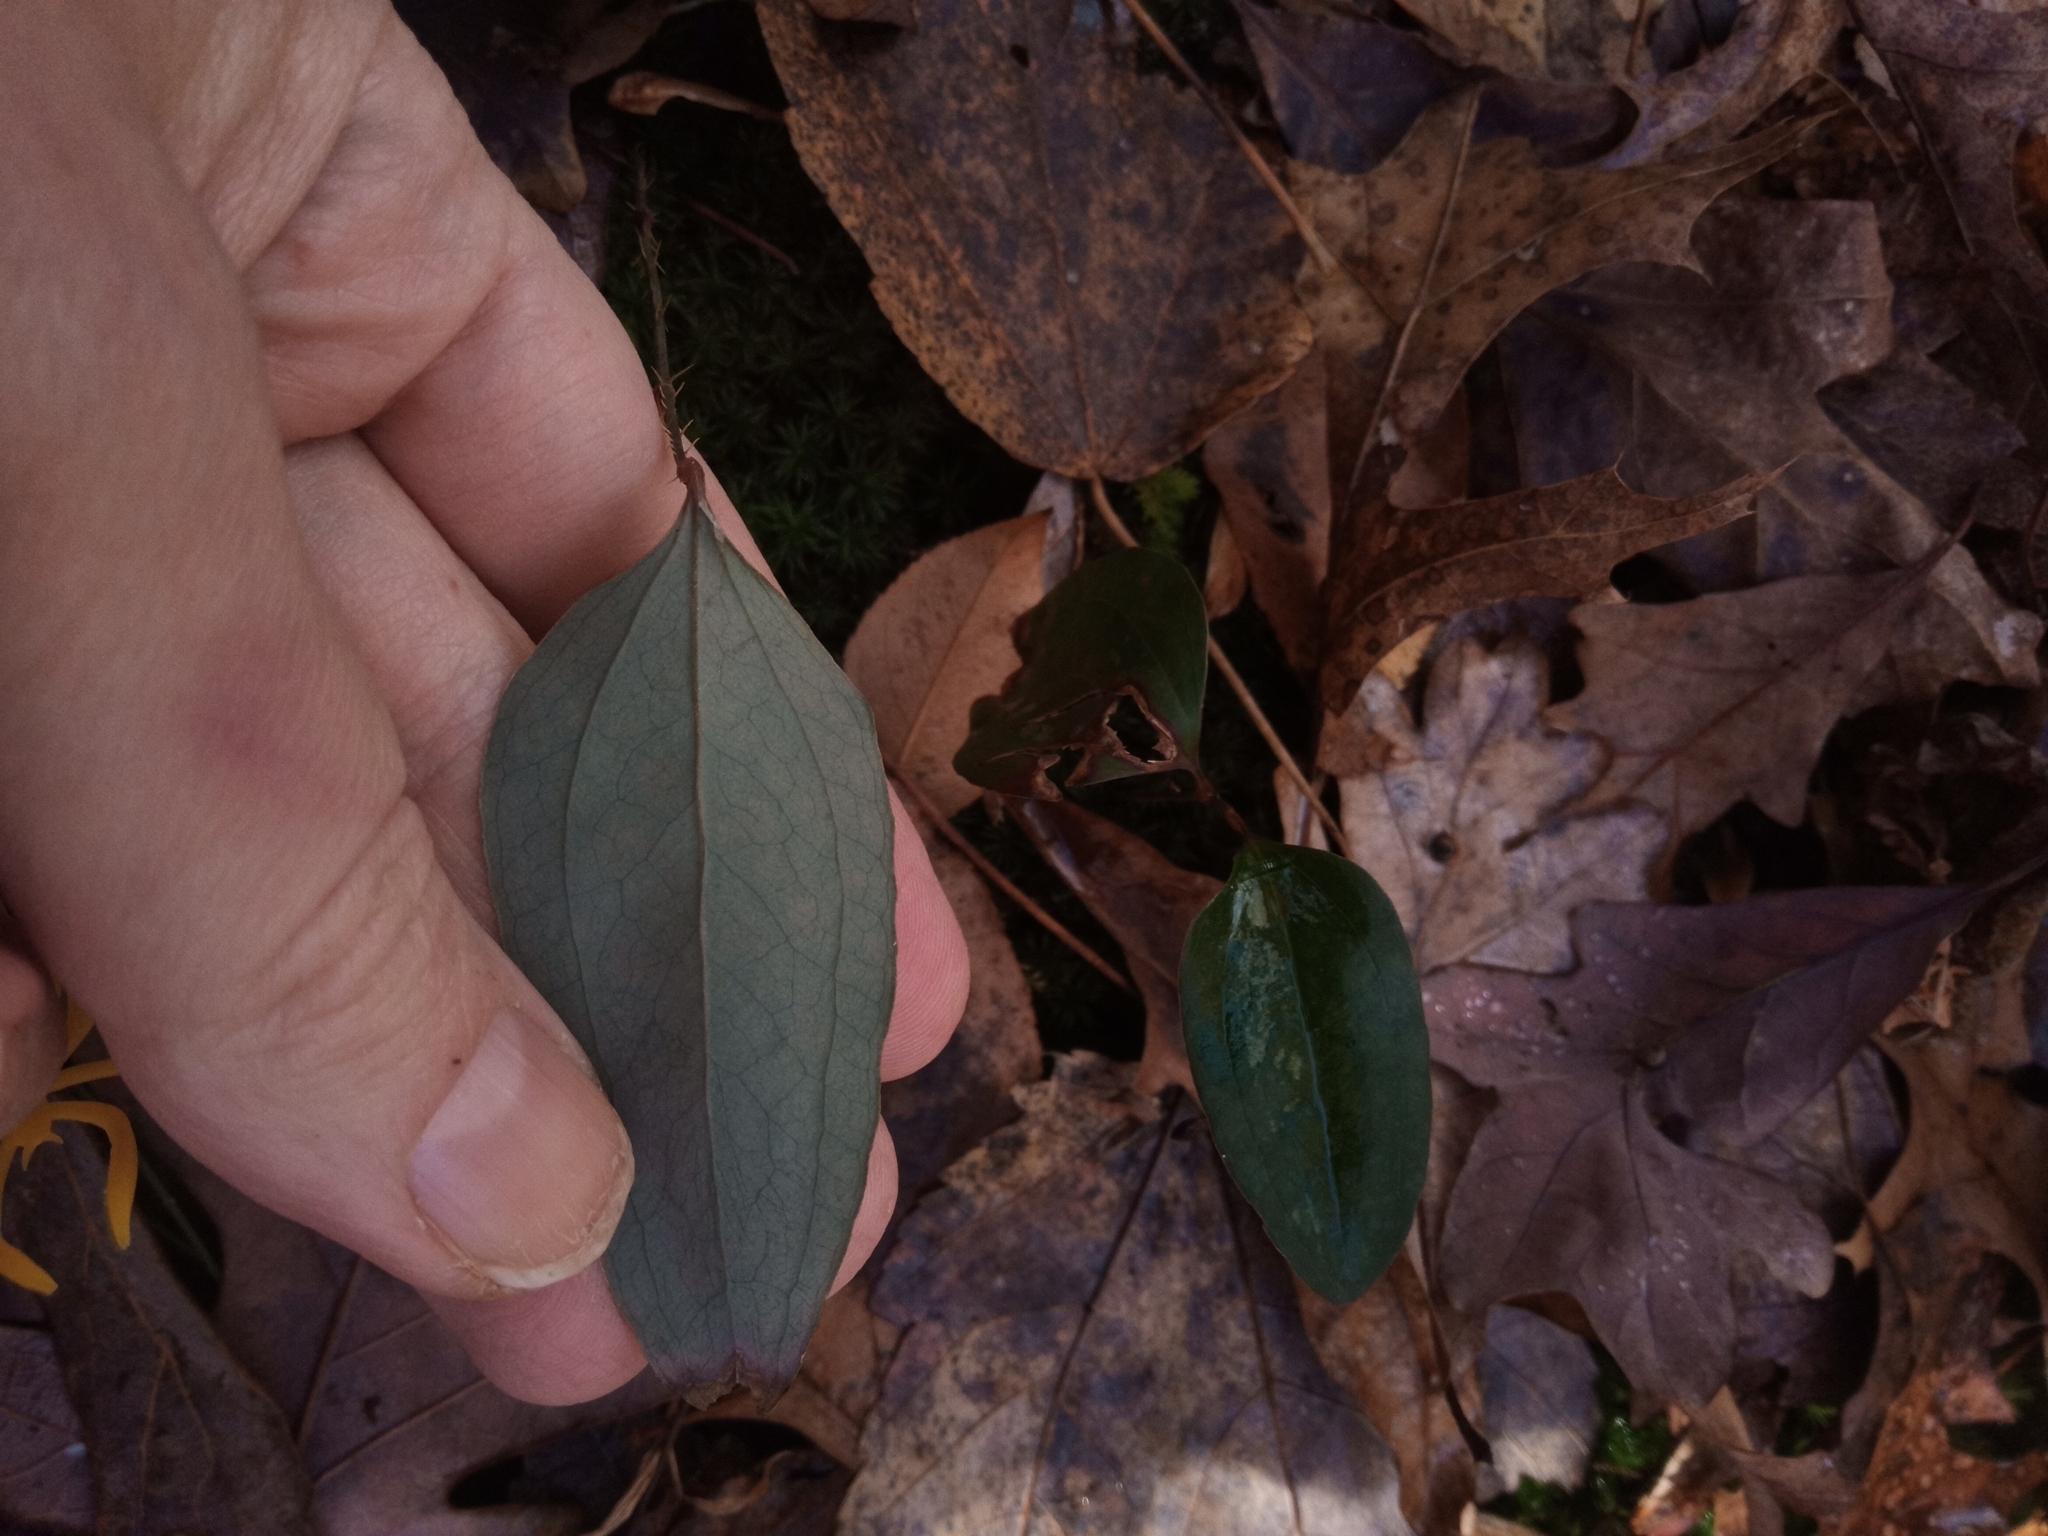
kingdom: Plantae
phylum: Tracheophyta
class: Liliopsida
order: Liliales
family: Smilacaceae
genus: Smilax
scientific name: Smilax glauca
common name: Cat greenbrier
